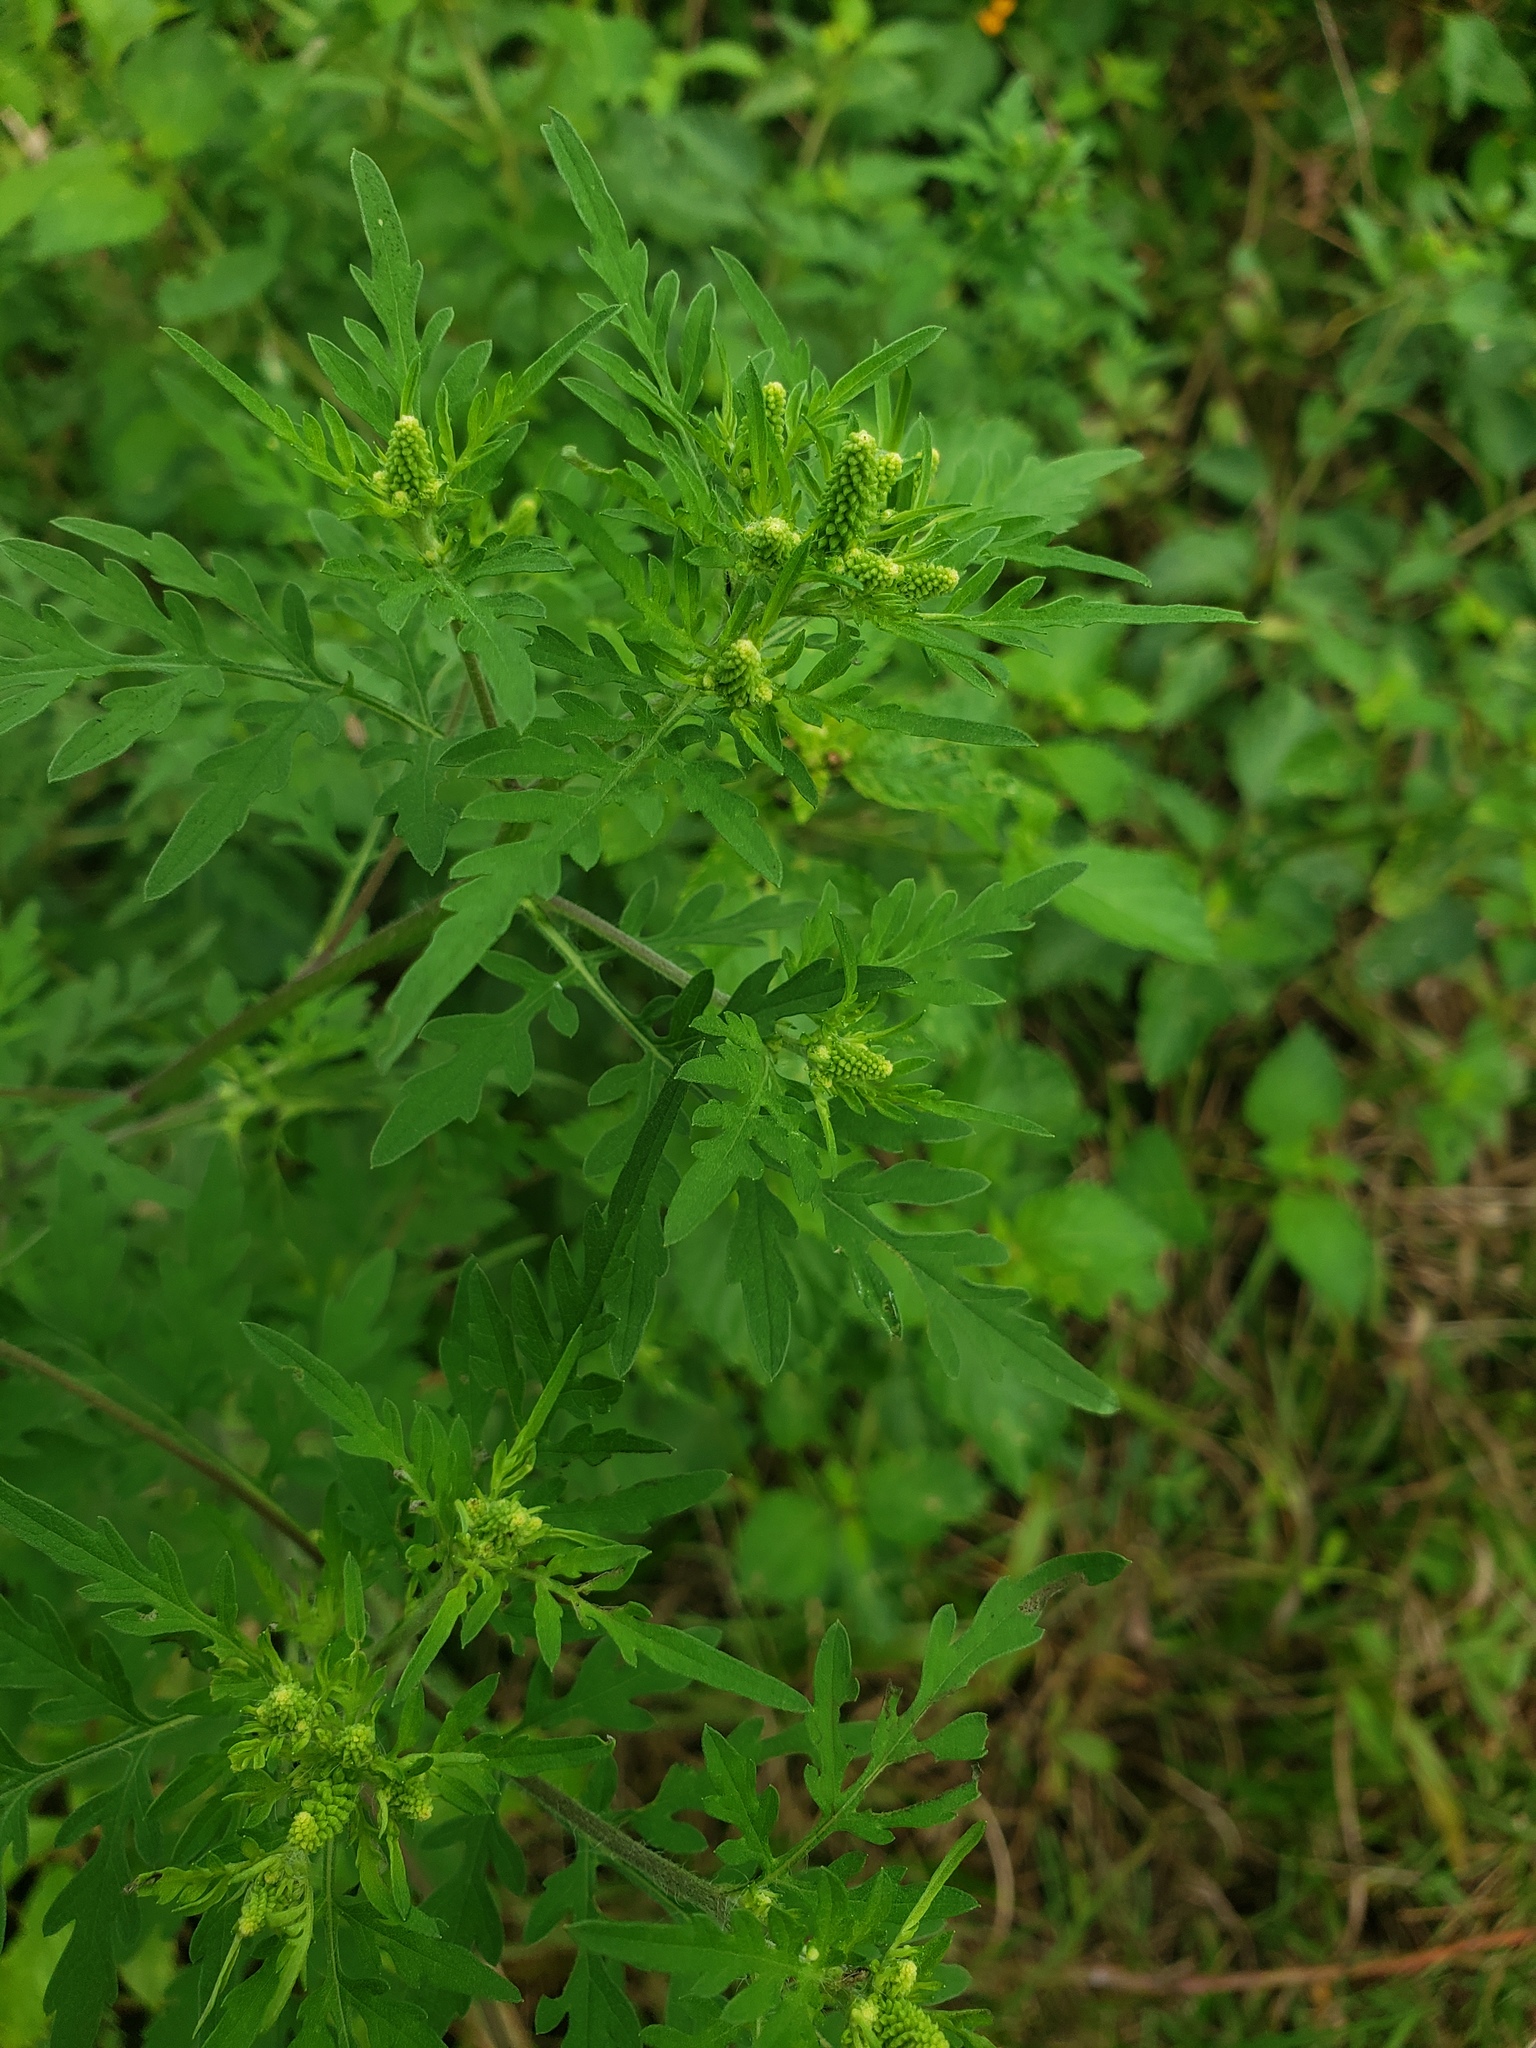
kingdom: Plantae
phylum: Tracheophyta
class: Magnoliopsida
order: Asterales
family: Asteraceae
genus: Ambrosia
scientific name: Ambrosia artemisiifolia
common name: Annual ragweed
